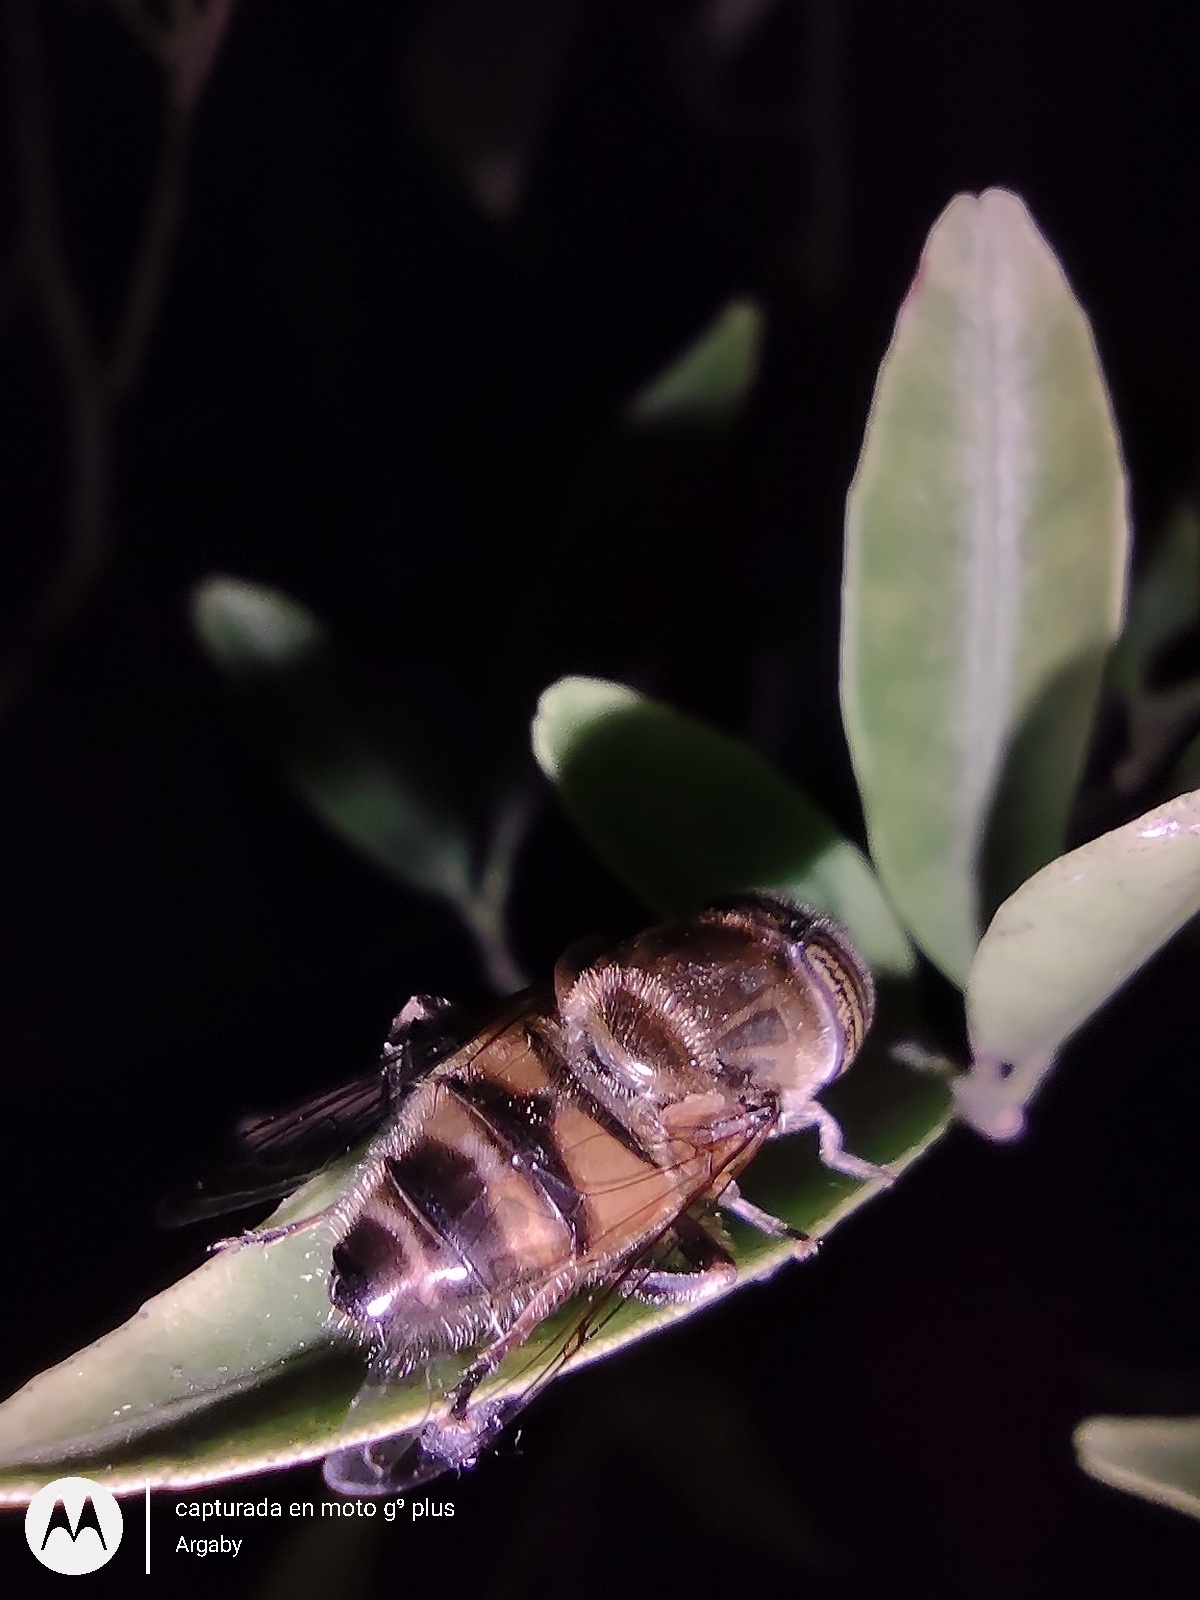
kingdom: Animalia
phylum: Arthropoda
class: Insecta
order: Diptera
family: Syrphidae
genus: Eristalinus
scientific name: Eristalinus taeniops
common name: Syrphid fly
